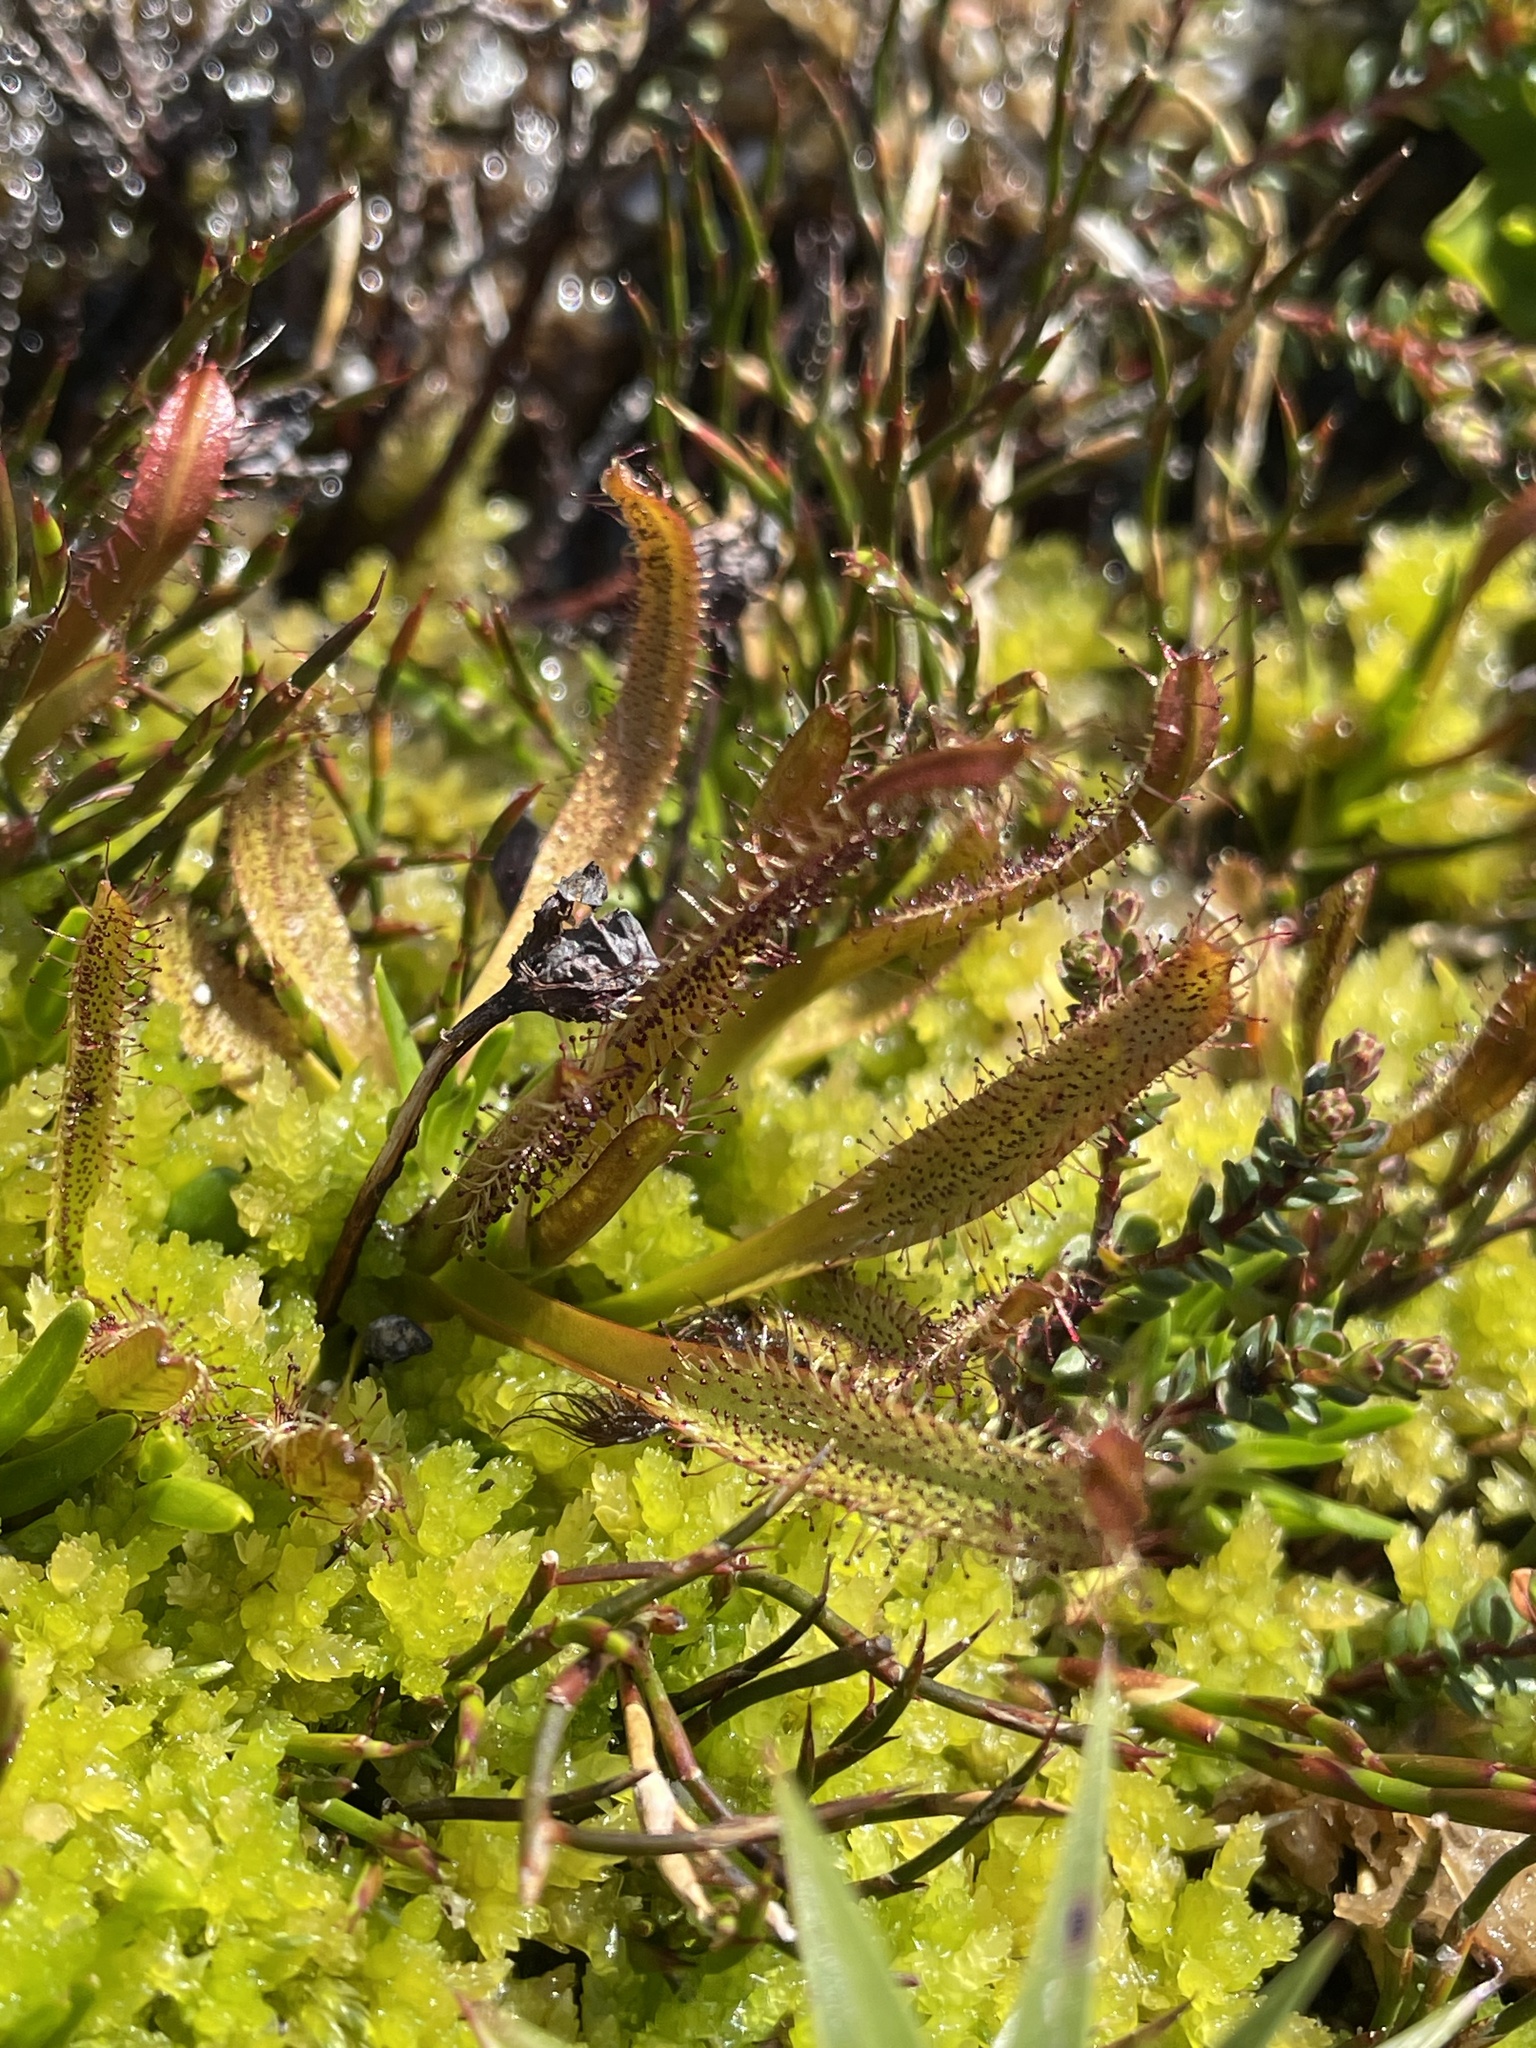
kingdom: Plantae
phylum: Tracheophyta
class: Magnoliopsida
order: Caryophyllales
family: Droseraceae
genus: Drosera
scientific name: Drosera arcturi
